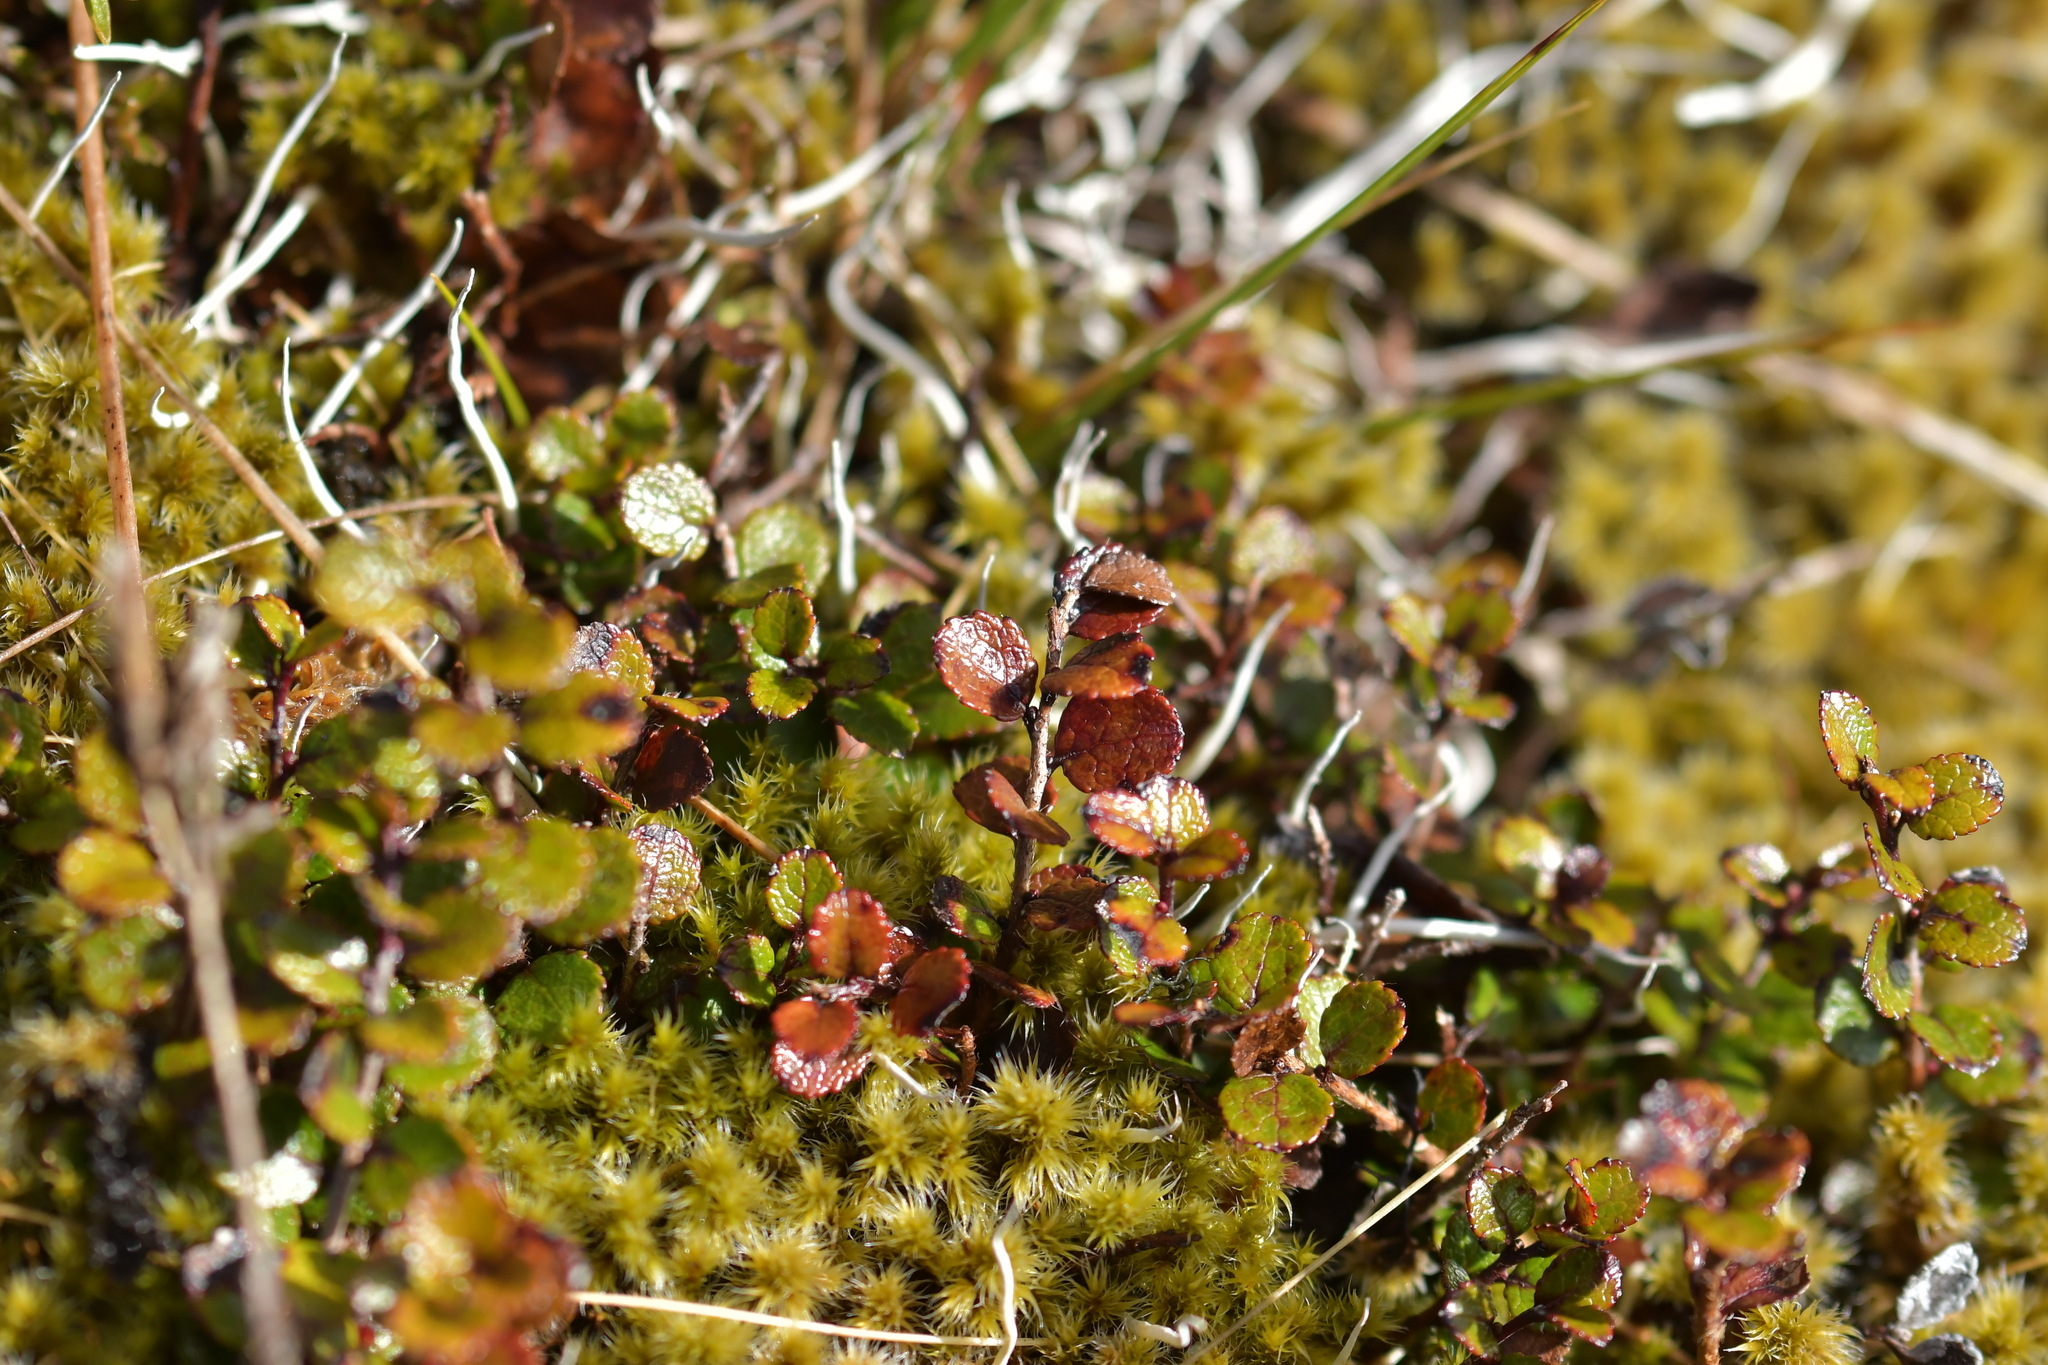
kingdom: Plantae
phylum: Tracheophyta
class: Magnoliopsida
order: Ericales
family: Ericaceae
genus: Gaultheria
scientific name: Gaultheria depressa
